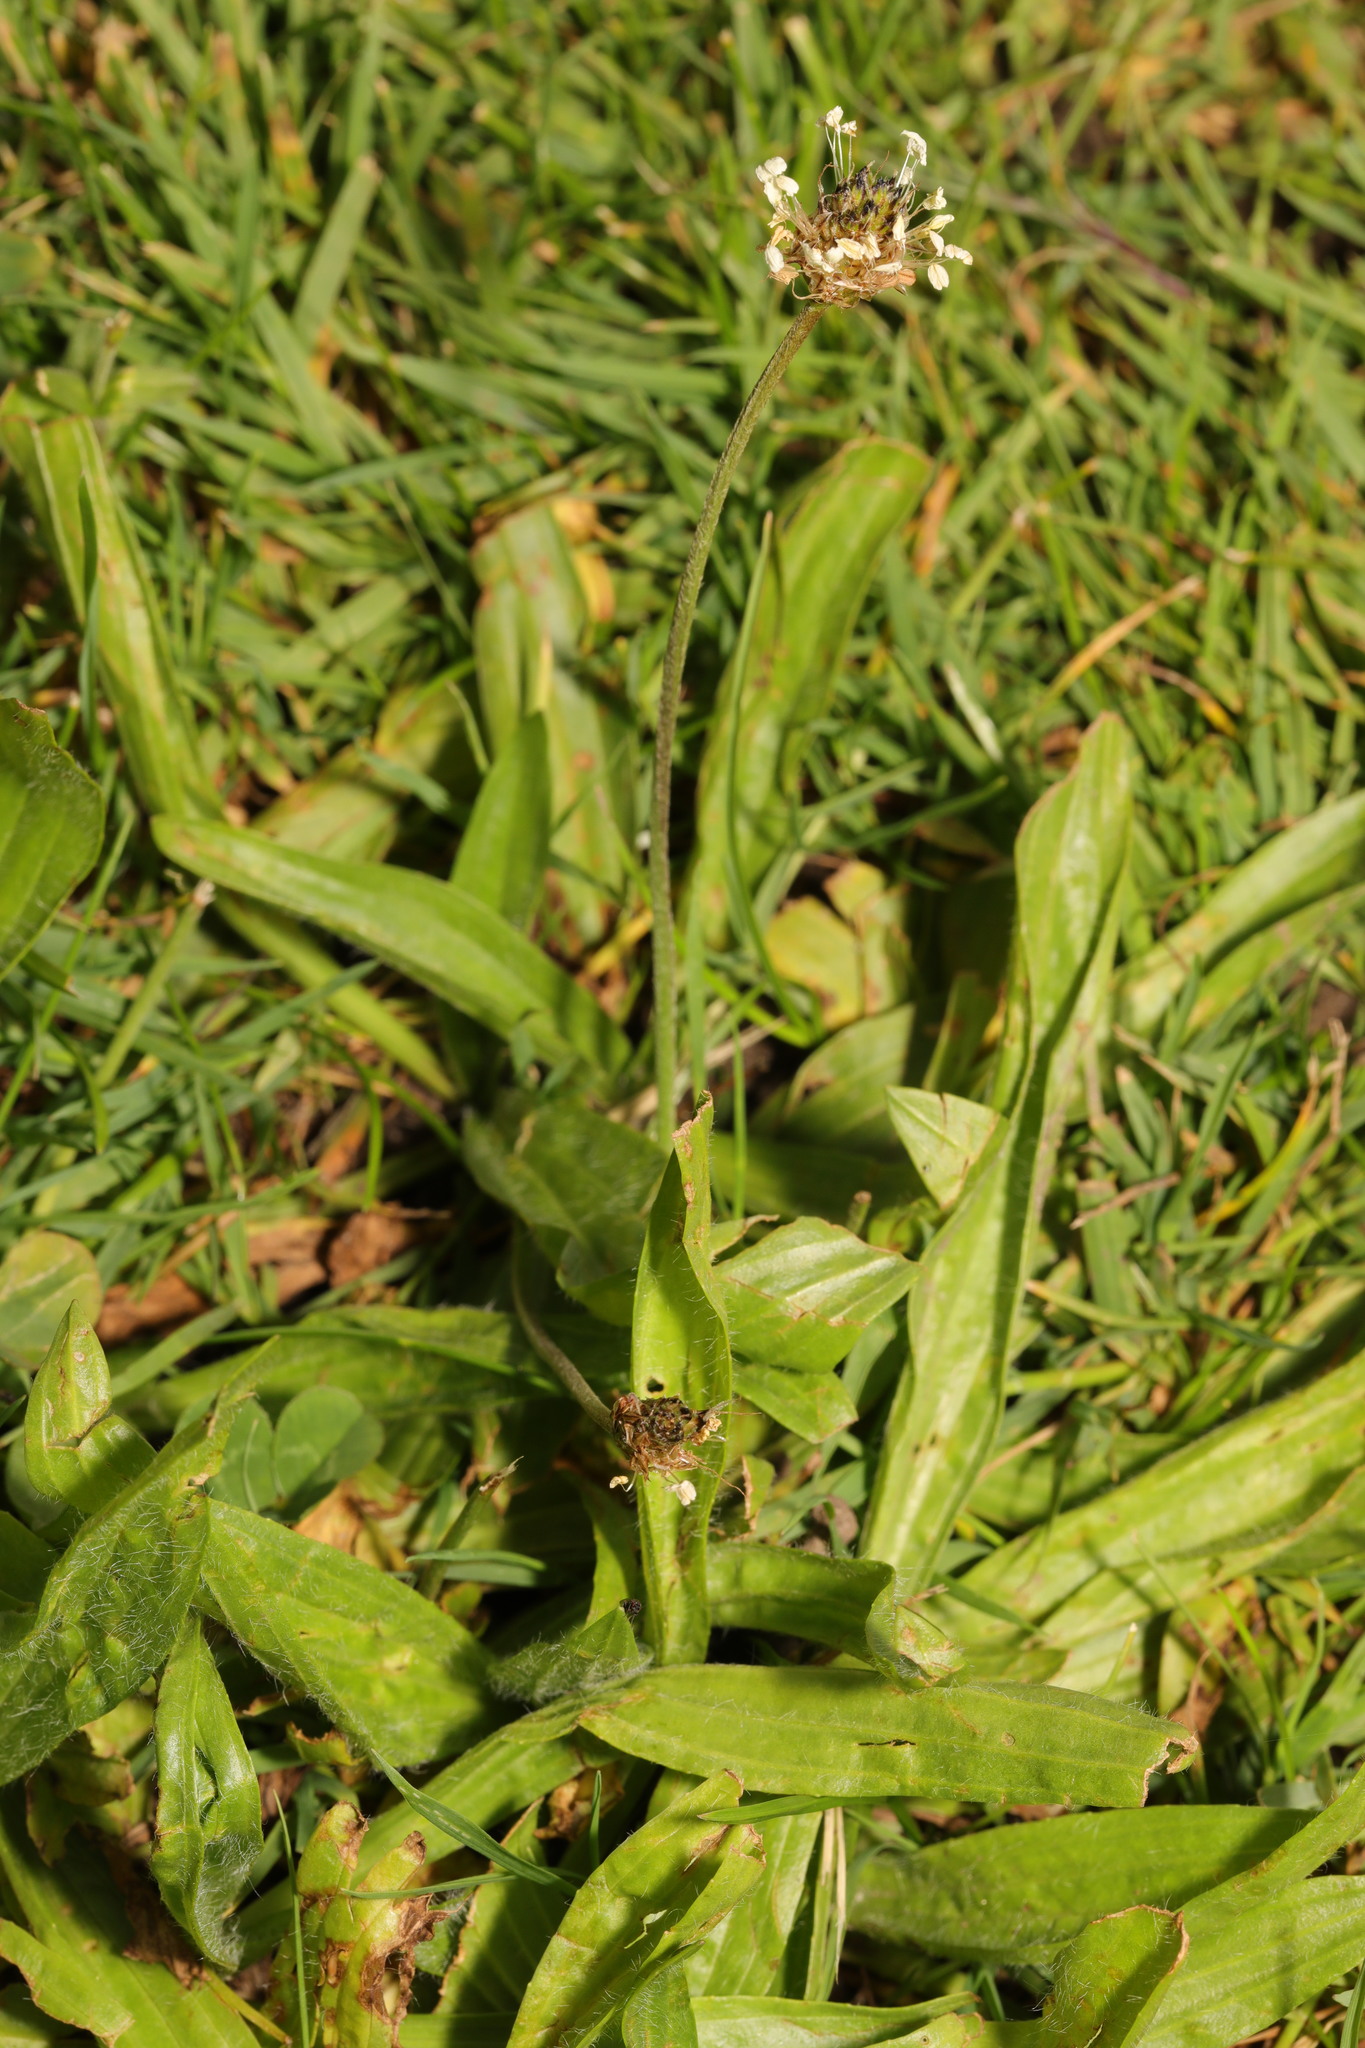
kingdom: Plantae
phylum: Tracheophyta
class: Magnoliopsida
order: Lamiales
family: Plantaginaceae
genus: Plantago
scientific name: Plantago lanceolata
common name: Ribwort plantain
